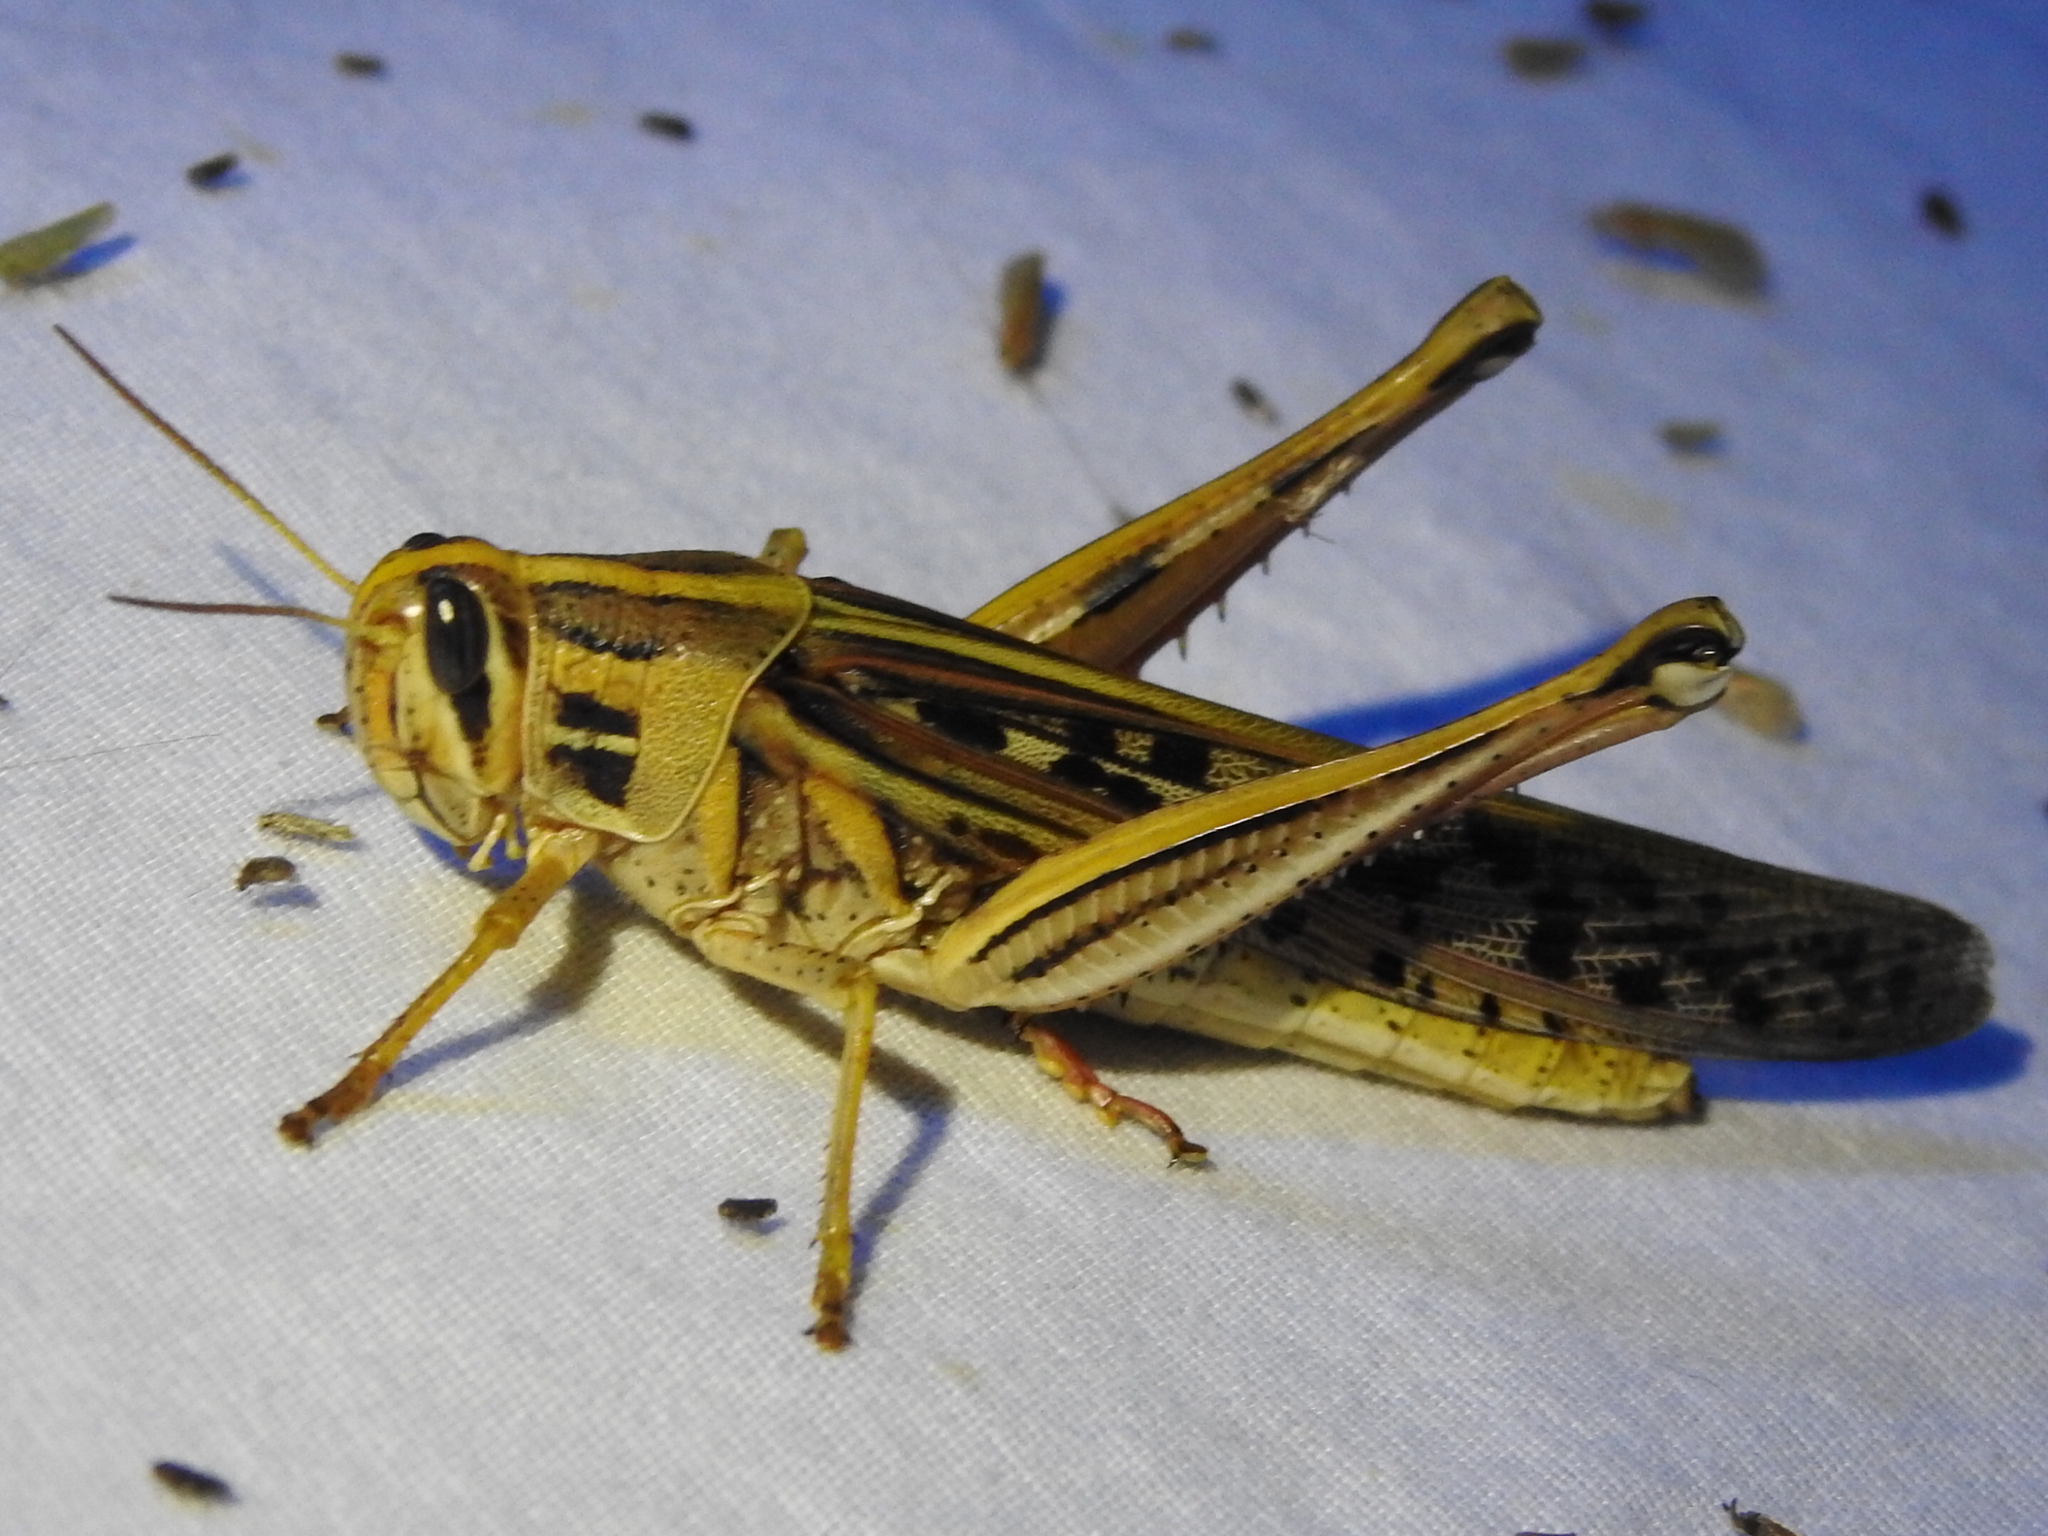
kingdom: Animalia
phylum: Arthropoda
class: Insecta
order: Orthoptera
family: Acrididae
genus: Schistocerca
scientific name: Schistocerca americana
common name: American bird locust
